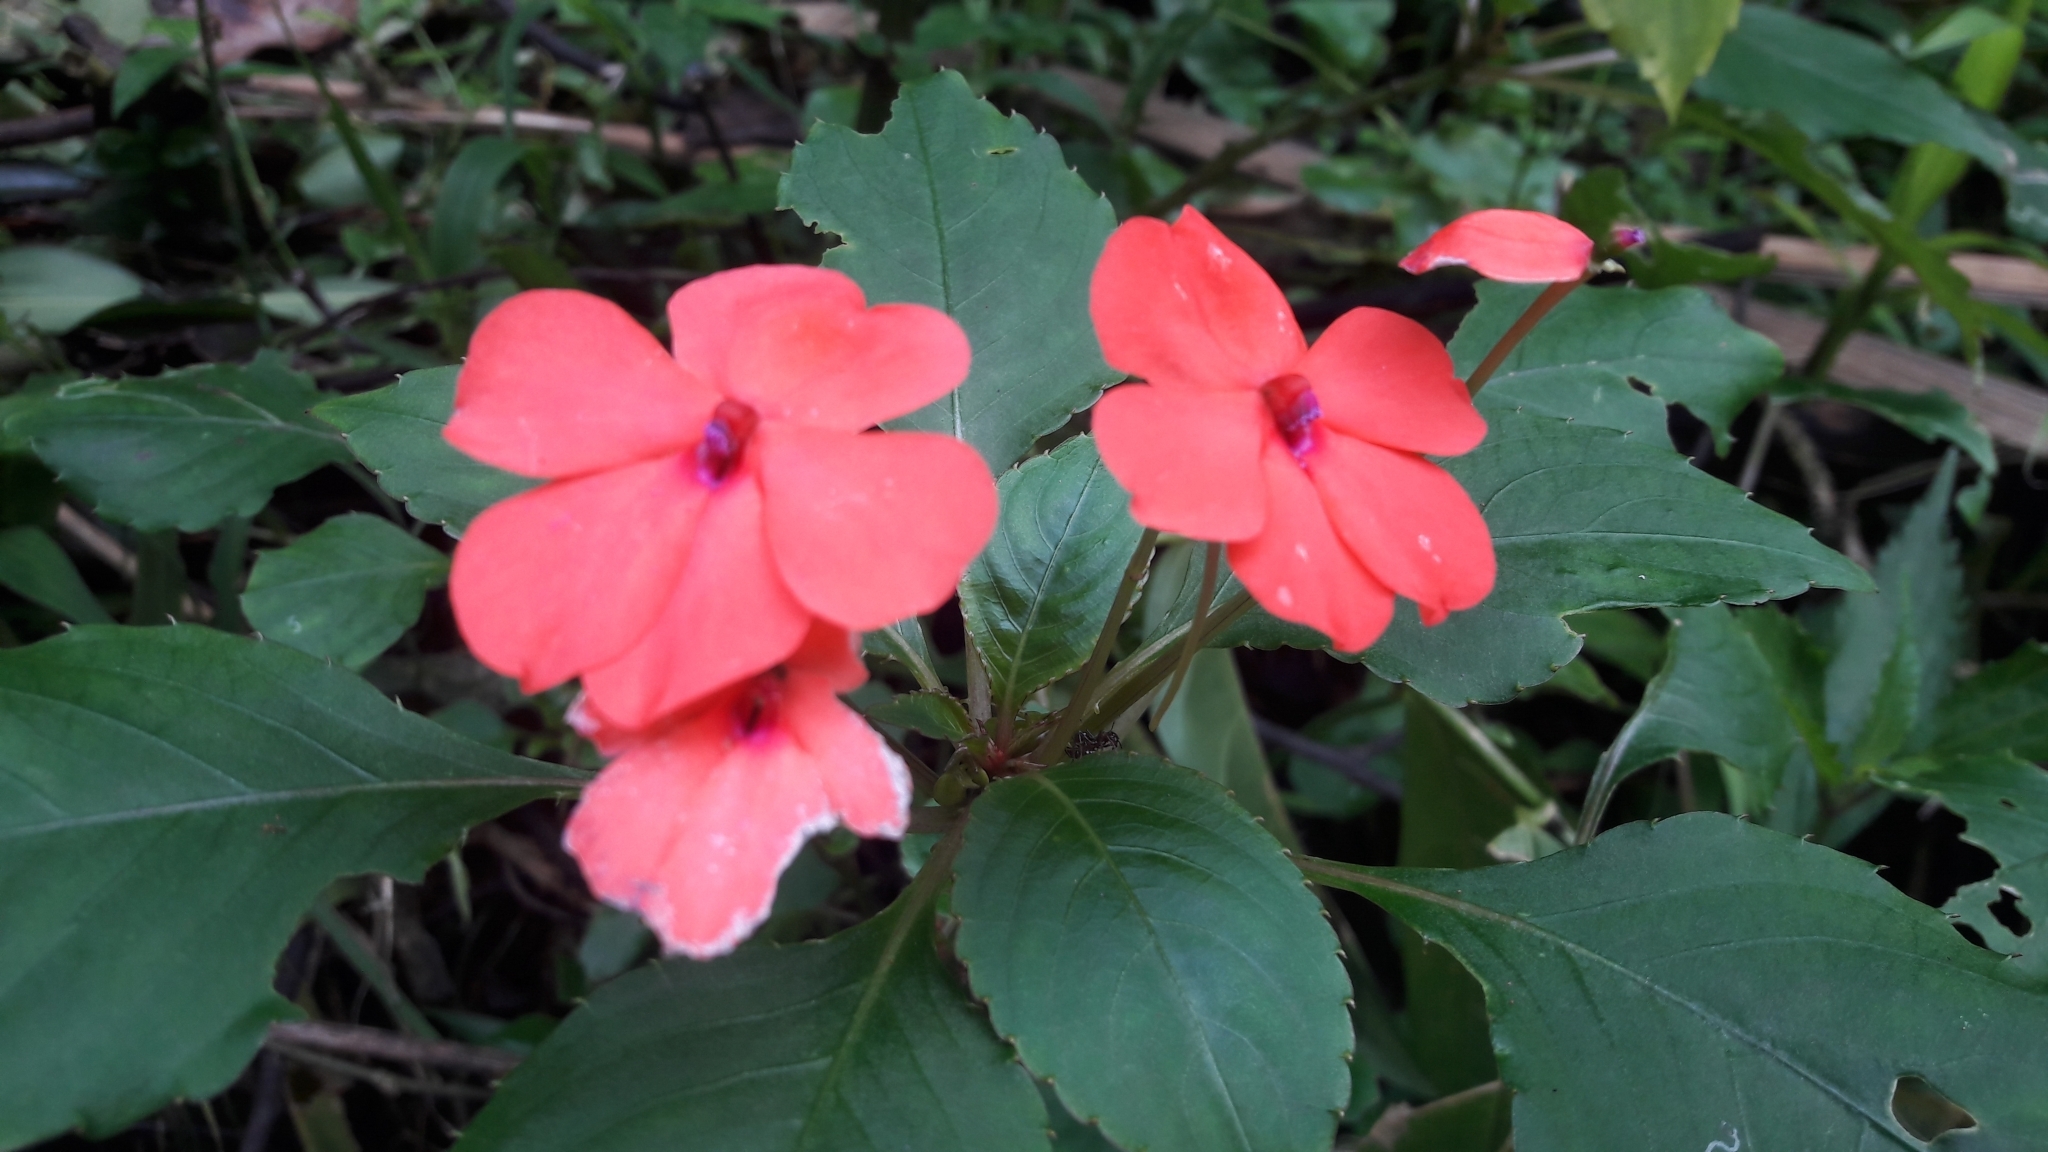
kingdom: Plantae
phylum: Tracheophyta
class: Magnoliopsida
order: Ericales
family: Balsaminaceae
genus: Impatiens
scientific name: Impatiens walleriana
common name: Buzzy lizzy
